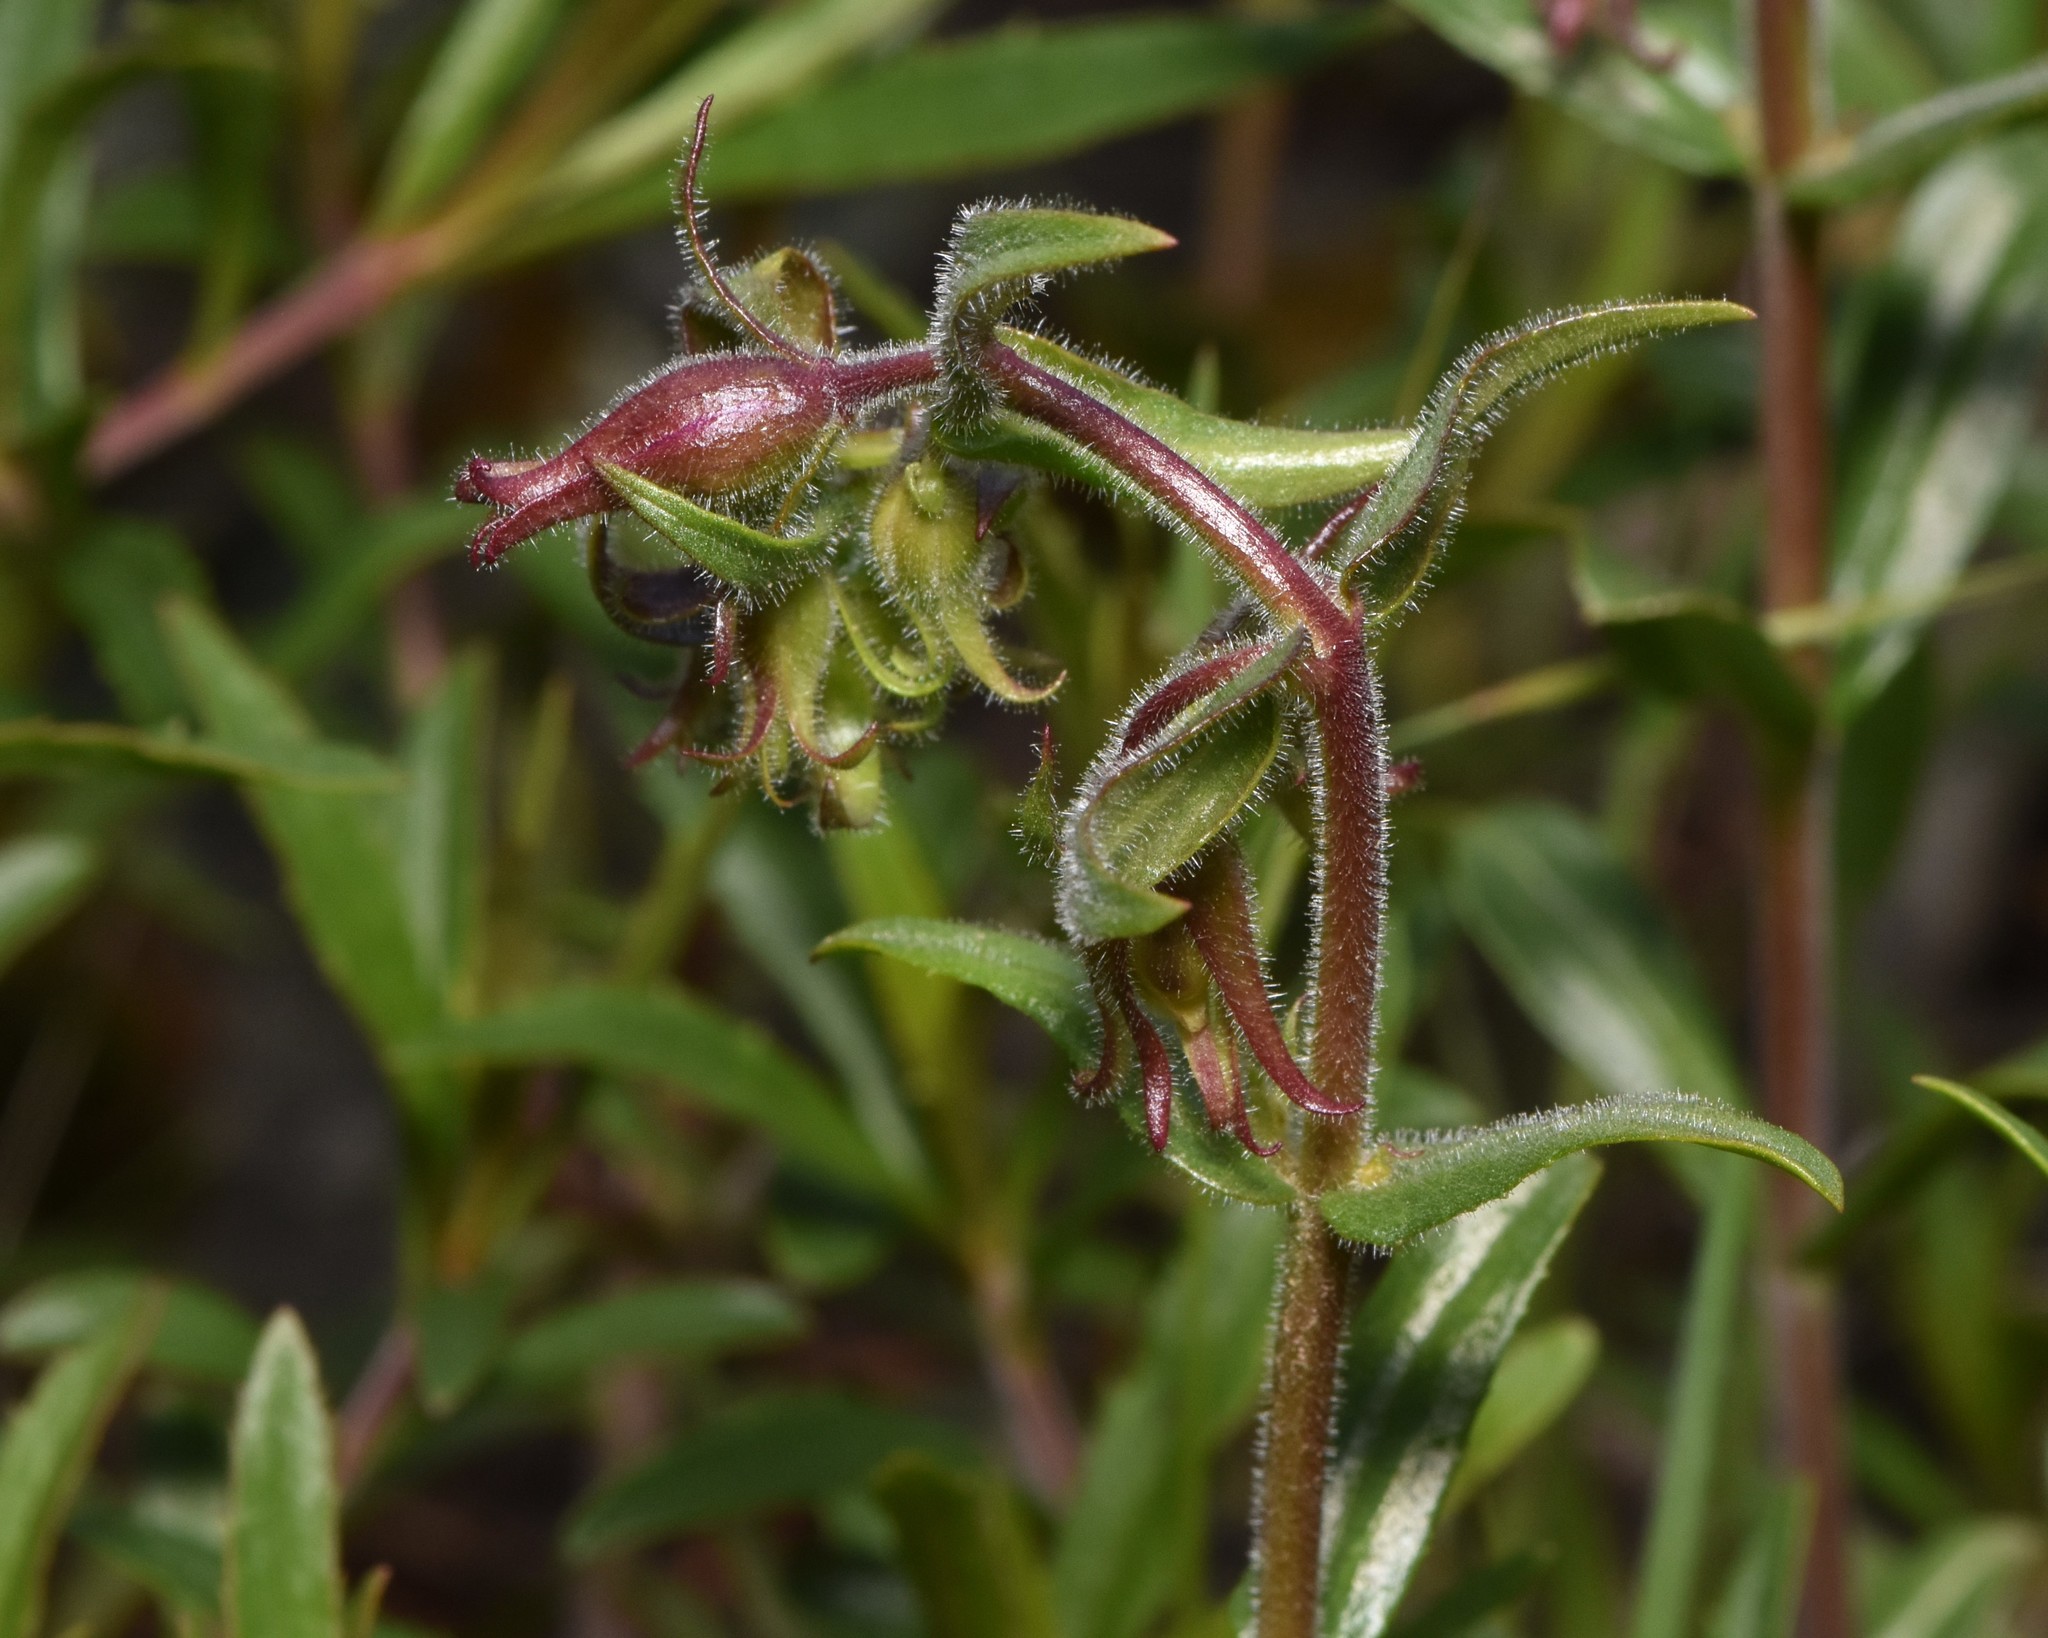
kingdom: Plantae
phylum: Tracheophyta
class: Magnoliopsida
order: Lamiales
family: Plantaginaceae
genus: Penstemon
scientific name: Penstemon fruticosus
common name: Bush penstemon
